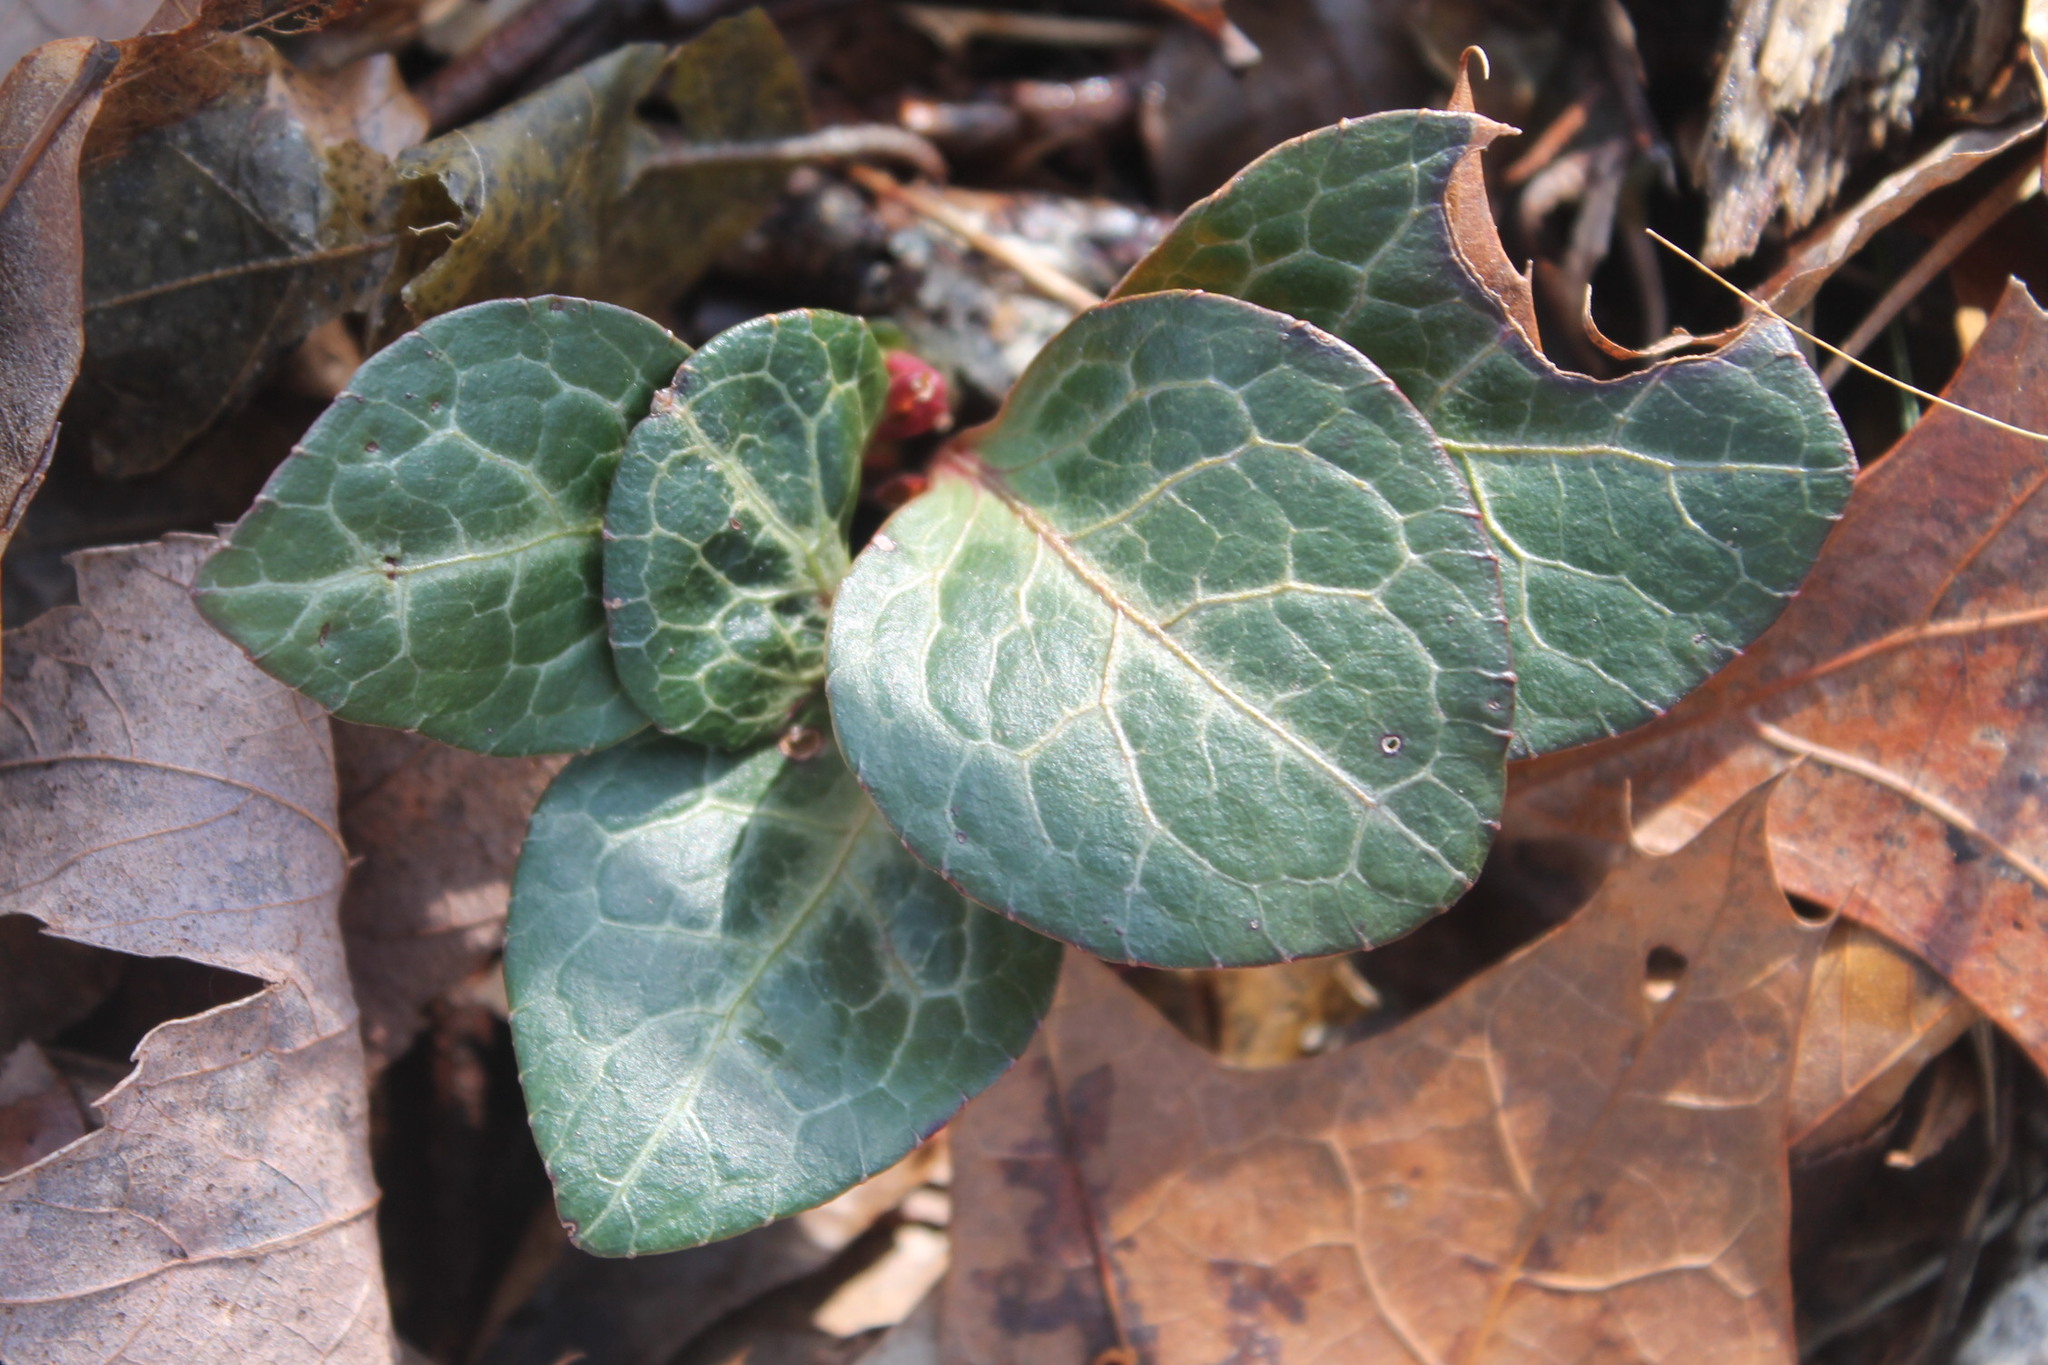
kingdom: Plantae
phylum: Tracheophyta
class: Magnoliopsida
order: Ericales
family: Ericaceae
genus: Pyrola
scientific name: Pyrola americana
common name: American wintergreen
